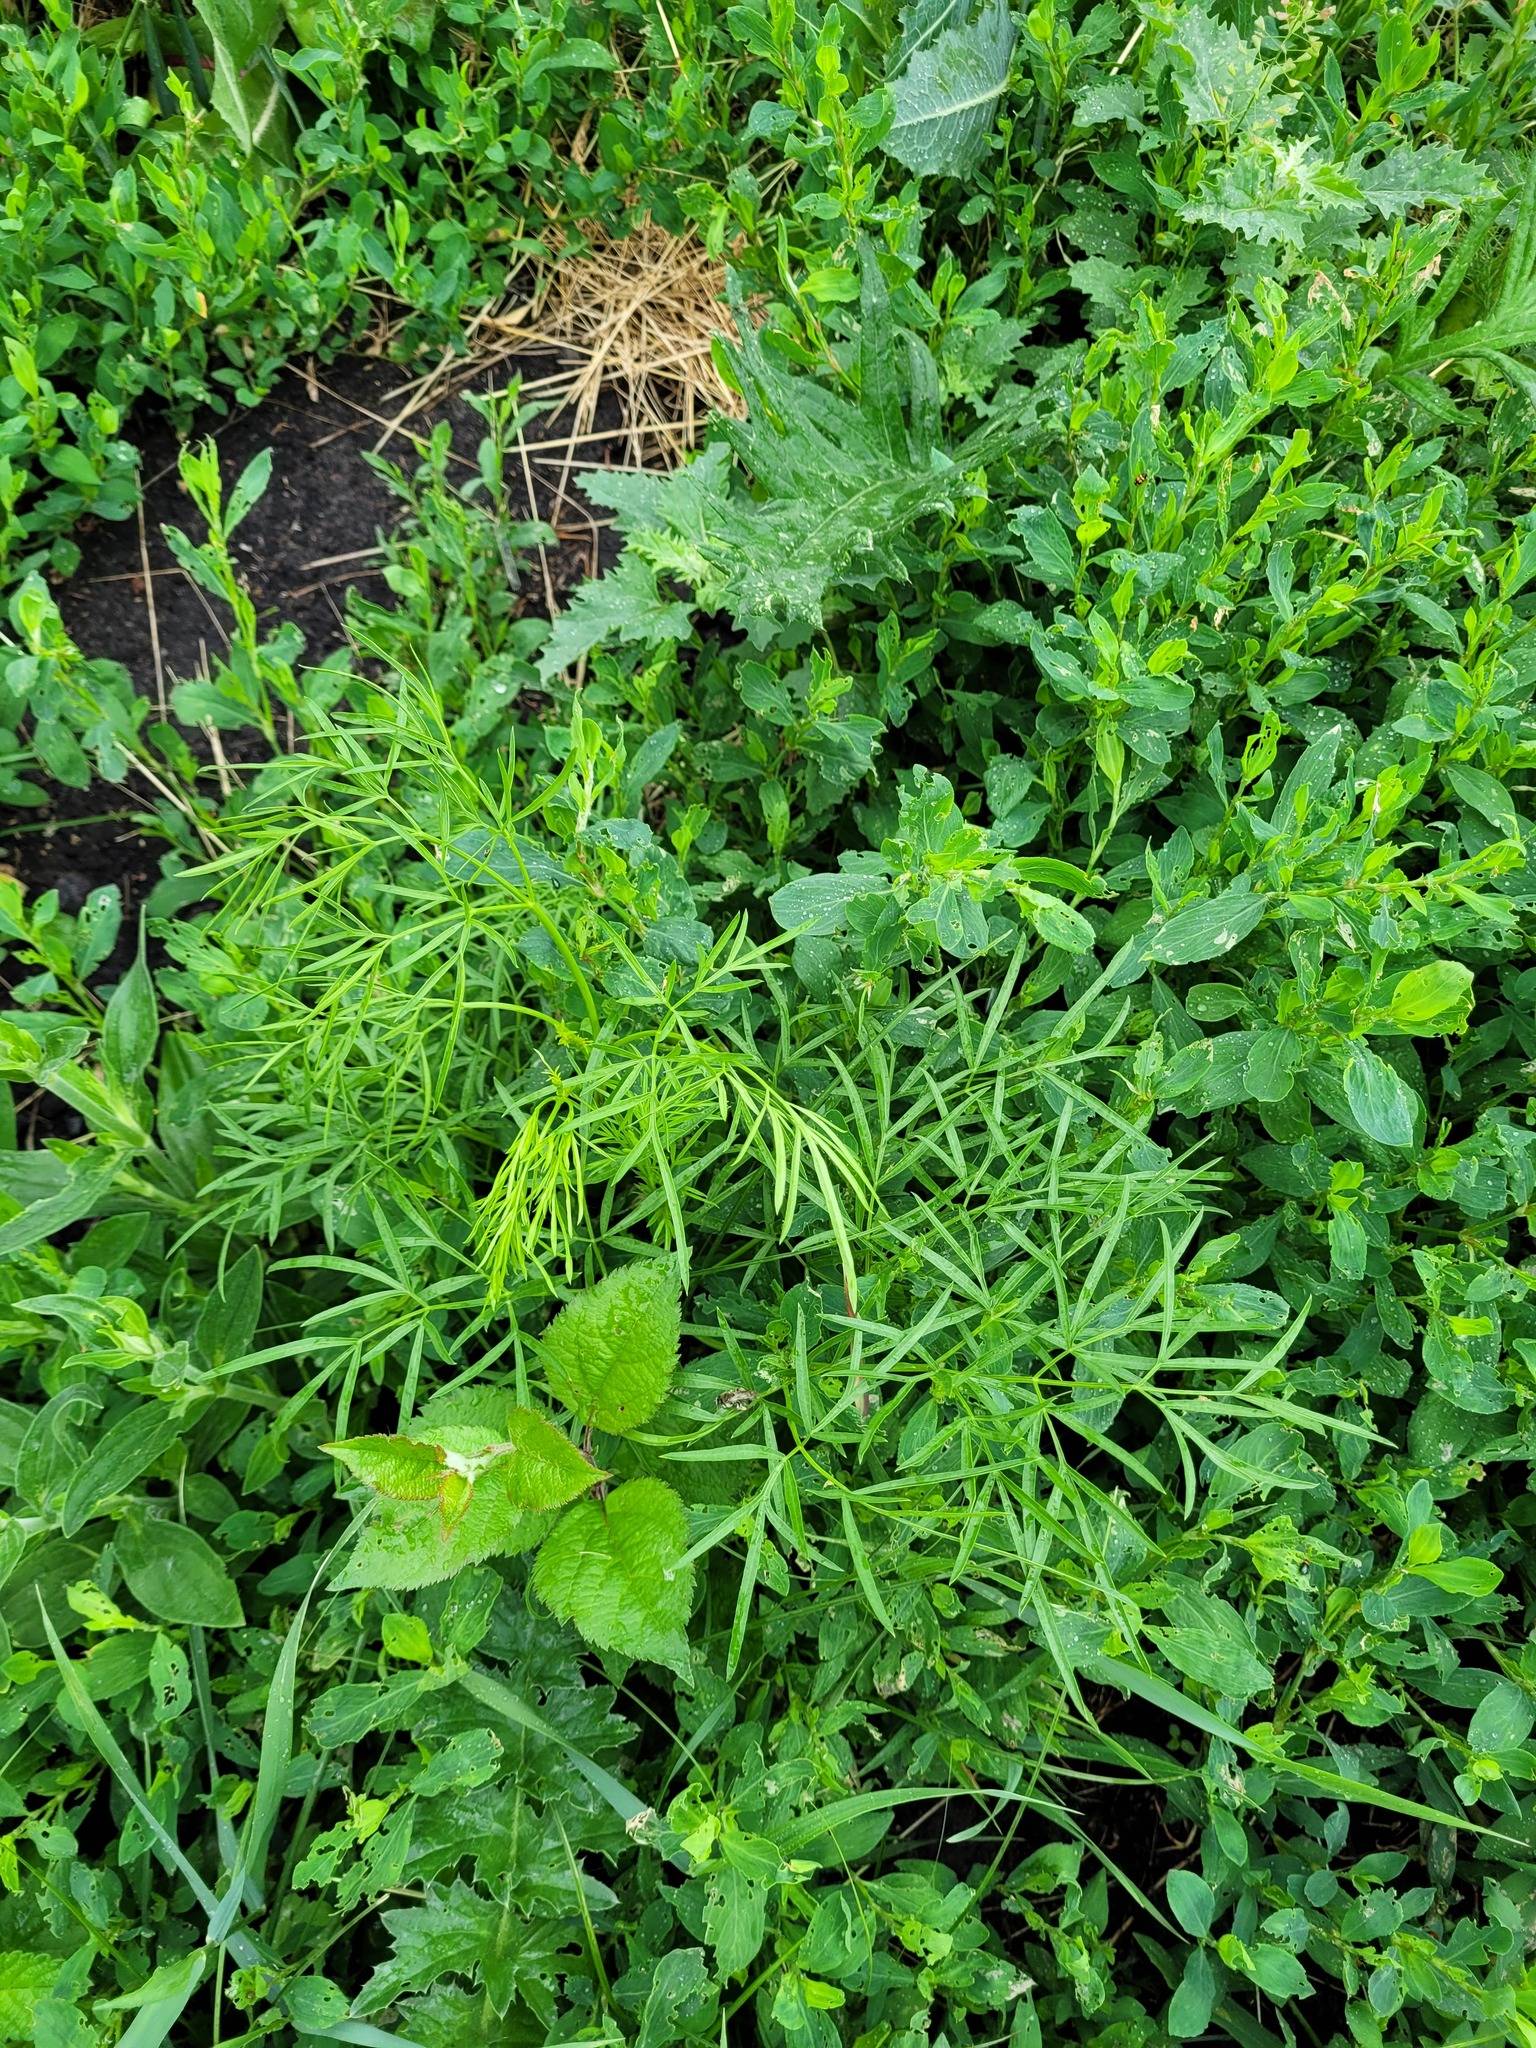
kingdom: Plantae
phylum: Tracheophyta
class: Magnoliopsida
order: Apiales
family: Apiaceae
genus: Silaum
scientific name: Silaum silaus
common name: Pepper-saxifrage
